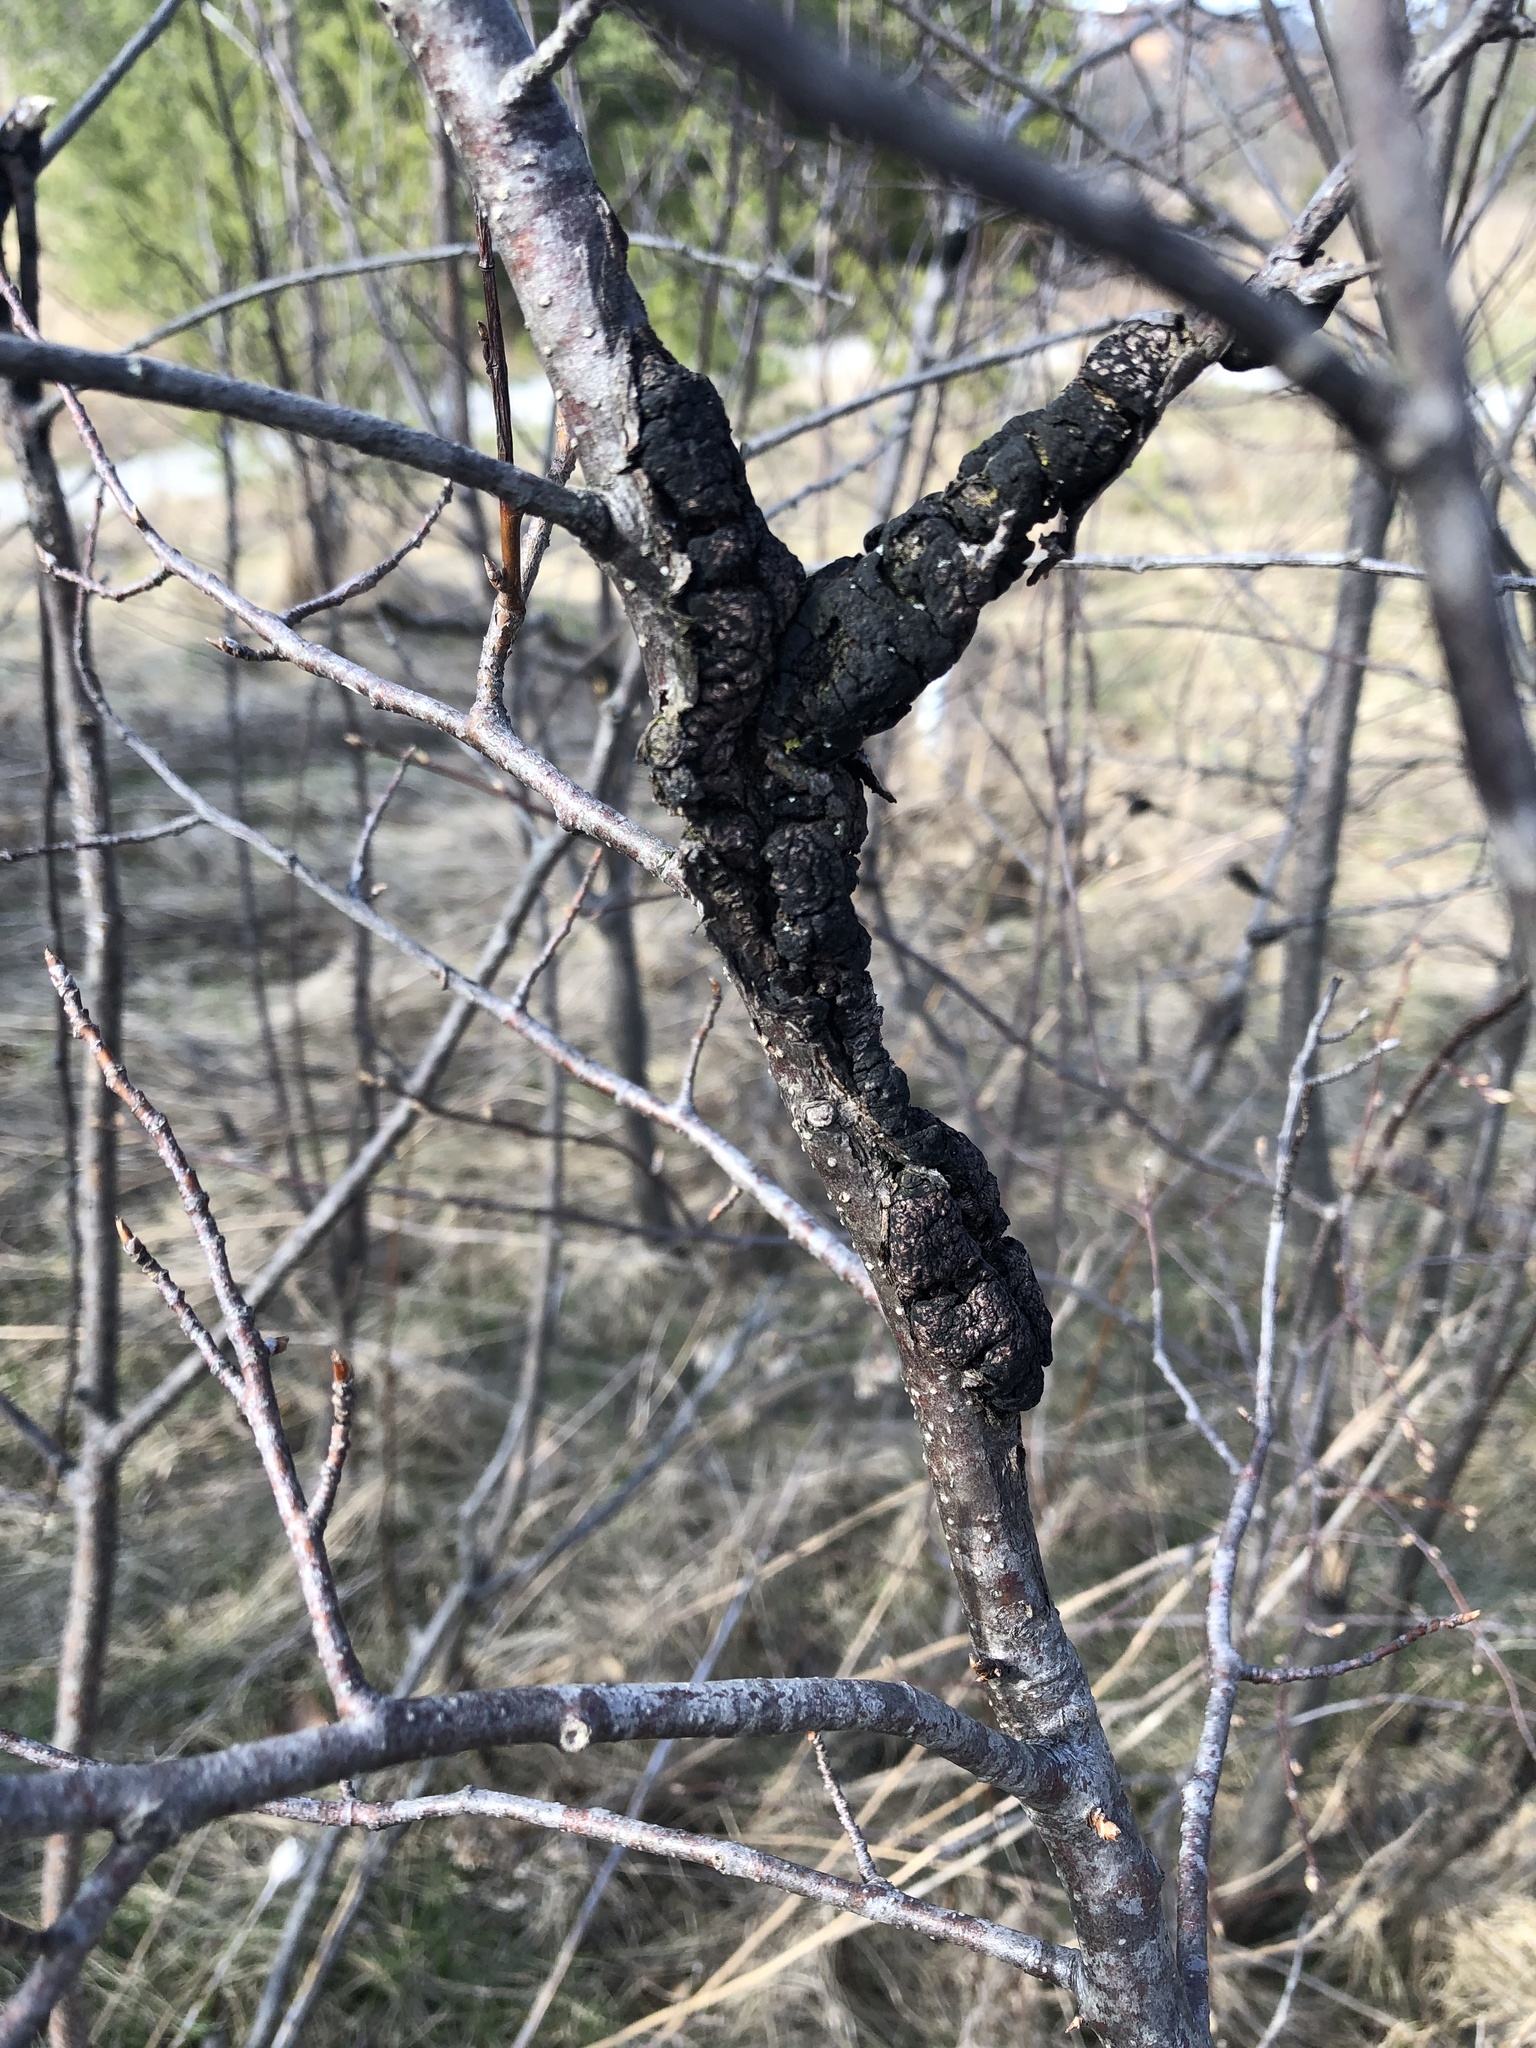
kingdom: Fungi
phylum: Ascomycota
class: Dothideomycetes
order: Venturiales
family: Venturiaceae
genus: Apiosporina
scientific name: Apiosporina morbosa
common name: Black knot
